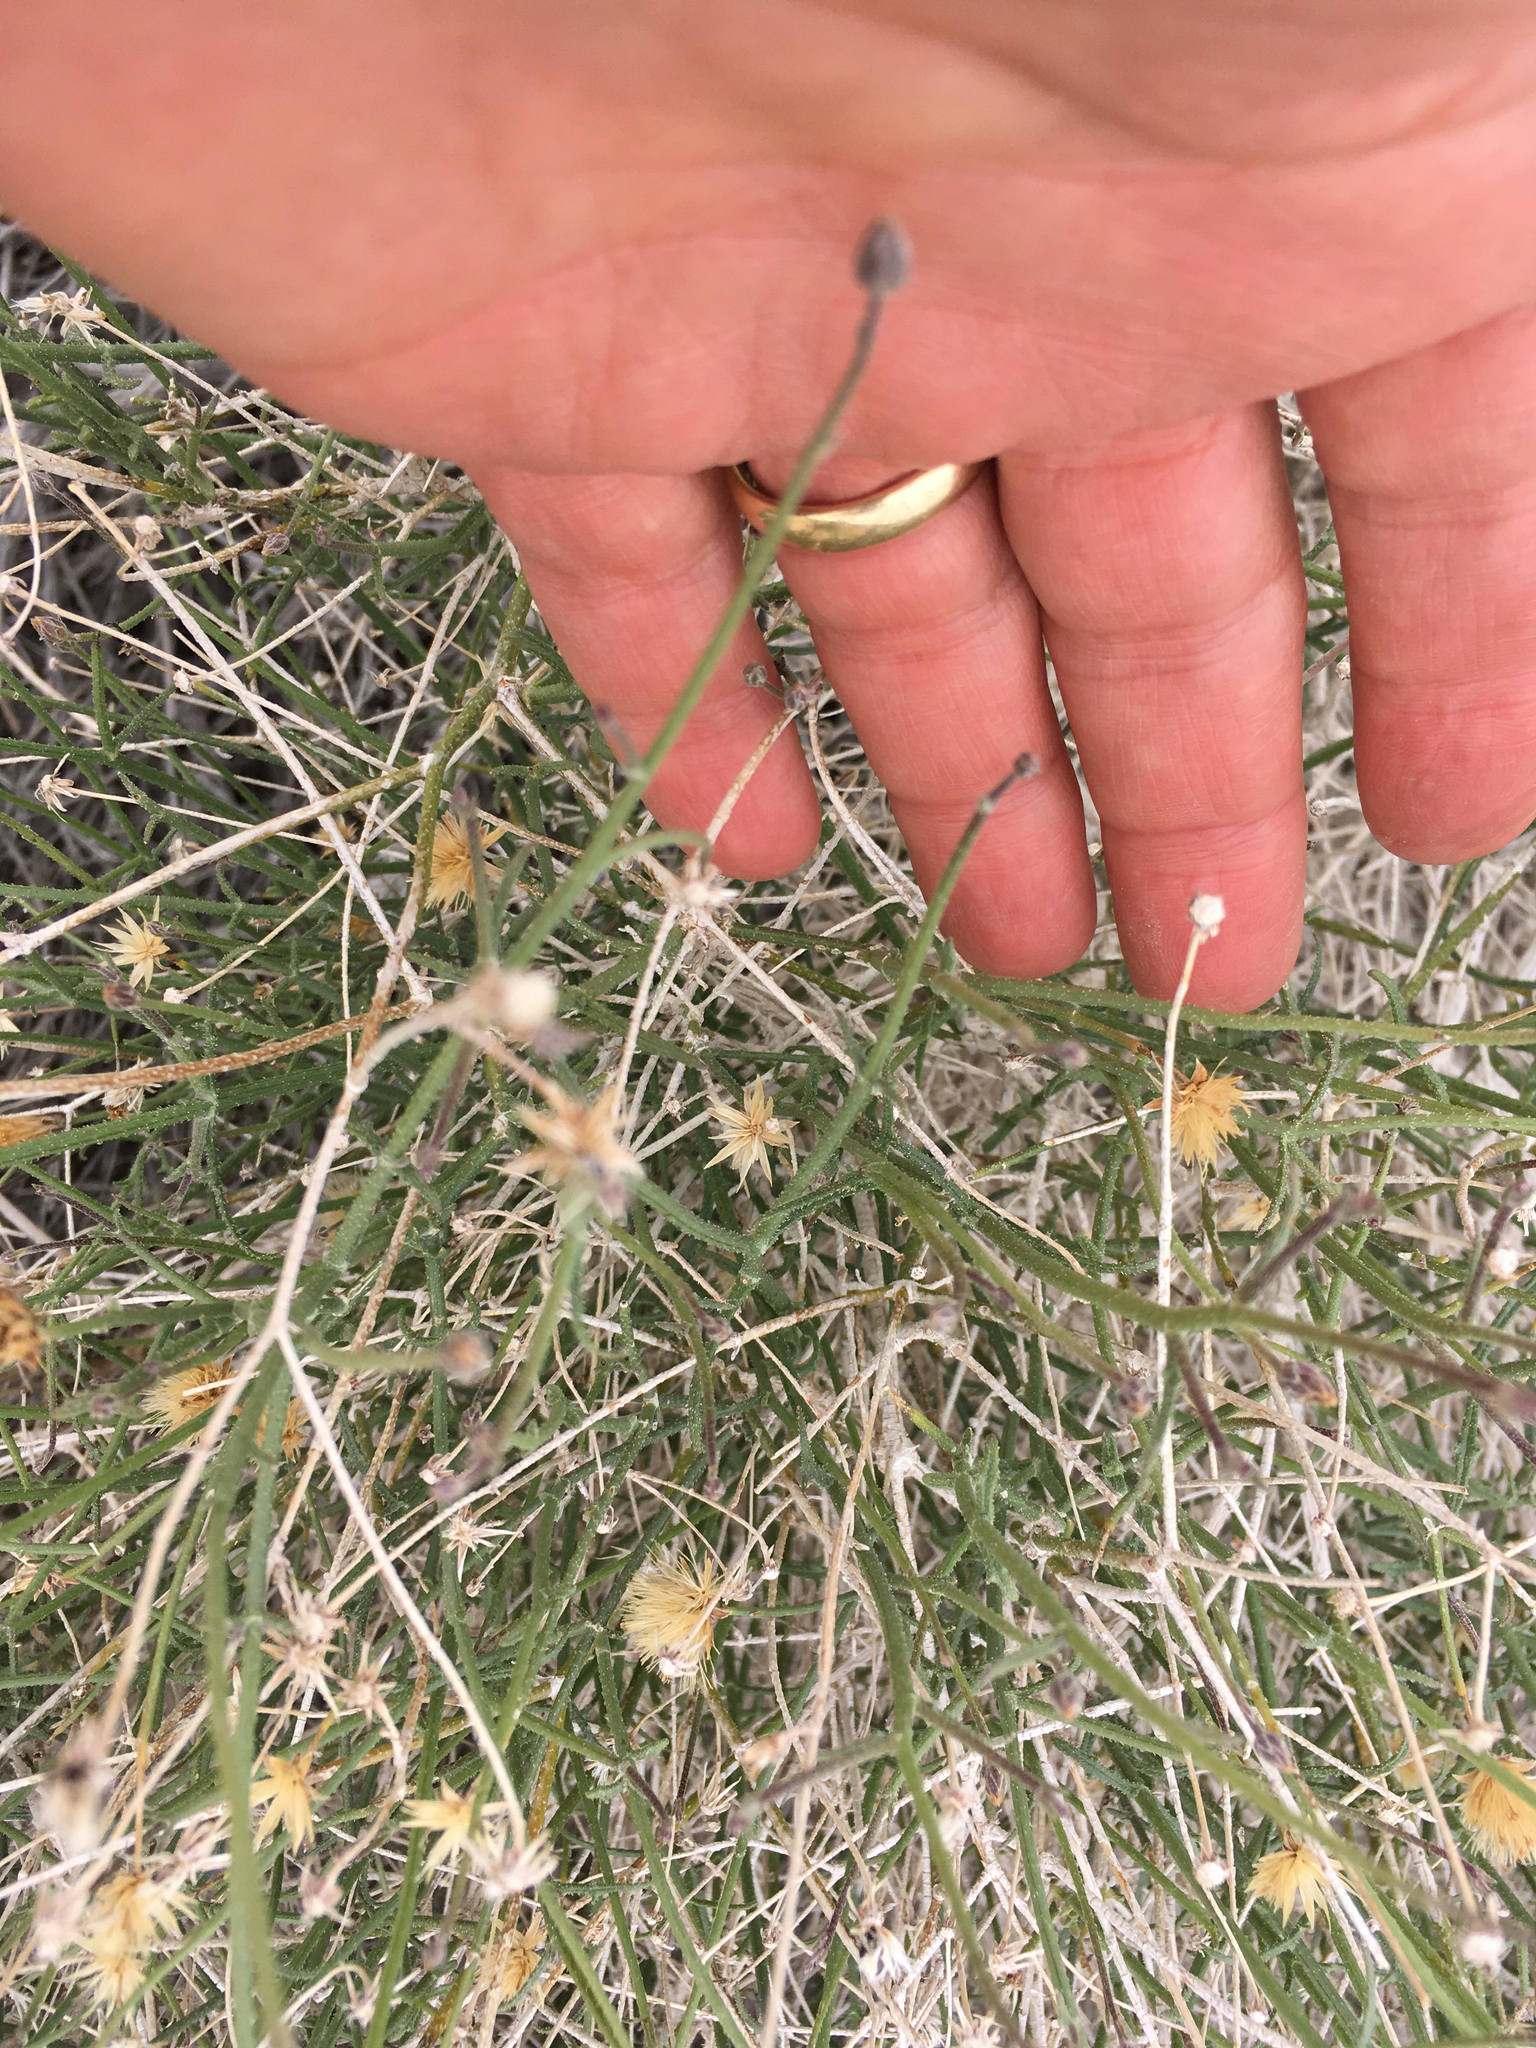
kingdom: Plantae
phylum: Tracheophyta
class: Magnoliopsida
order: Asterales
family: Asteraceae
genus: Bebbia
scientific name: Bebbia juncea
